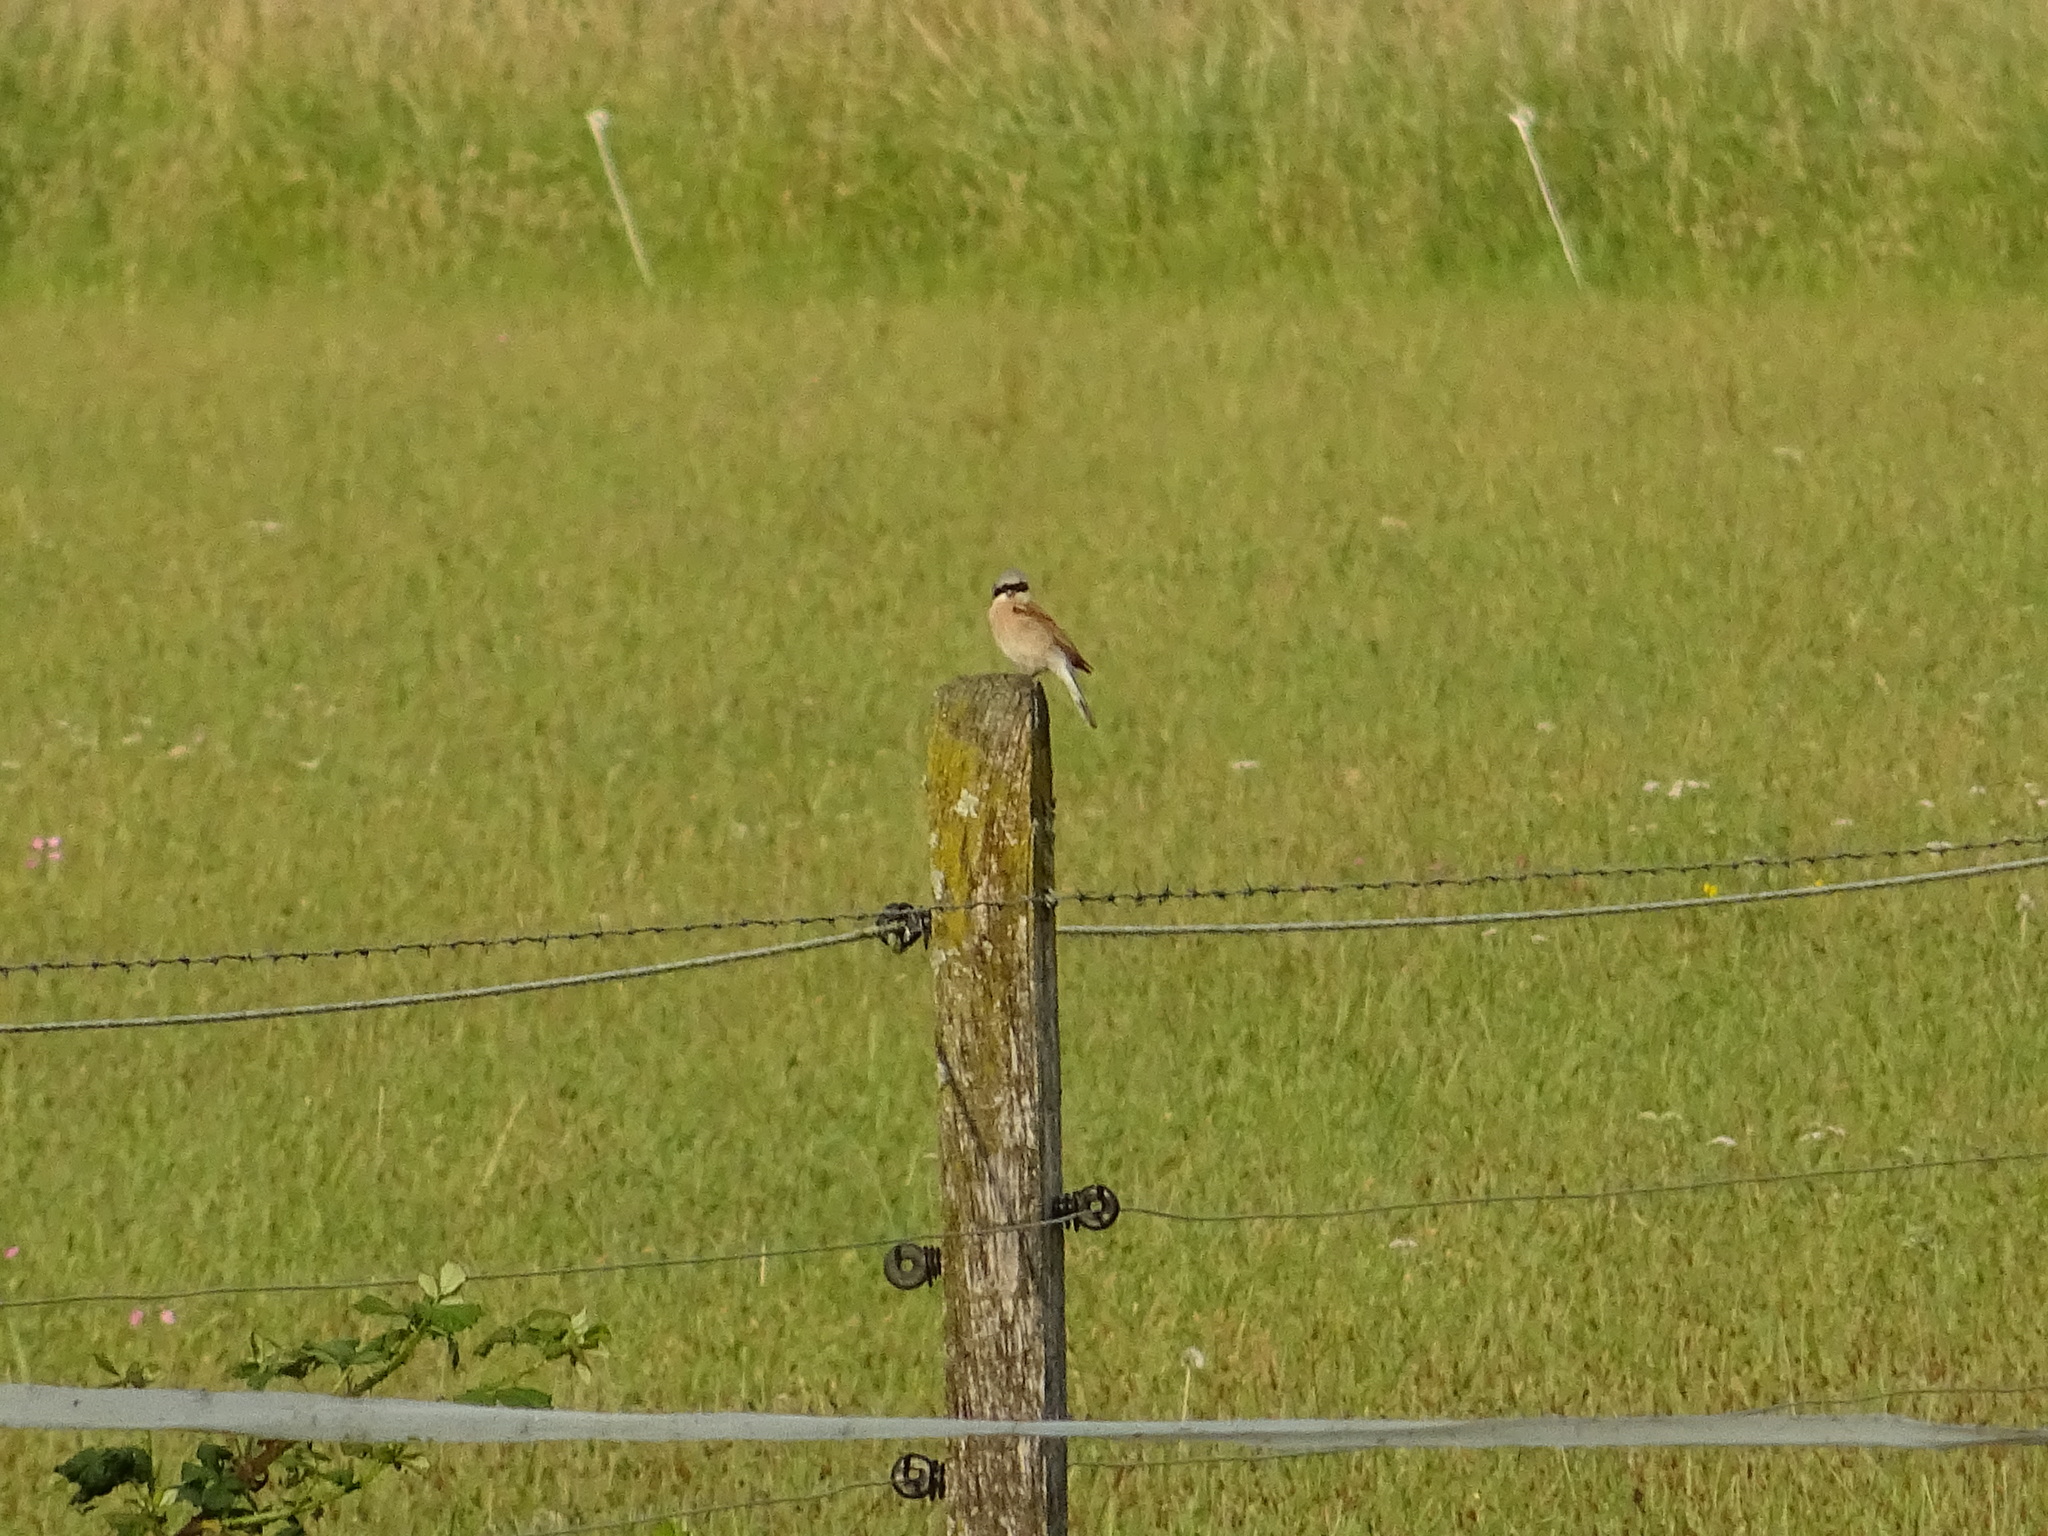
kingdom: Animalia
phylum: Chordata
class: Aves
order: Passeriformes
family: Laniidae
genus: Lanius
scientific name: Lanius collurio
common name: Red-backed shrike
